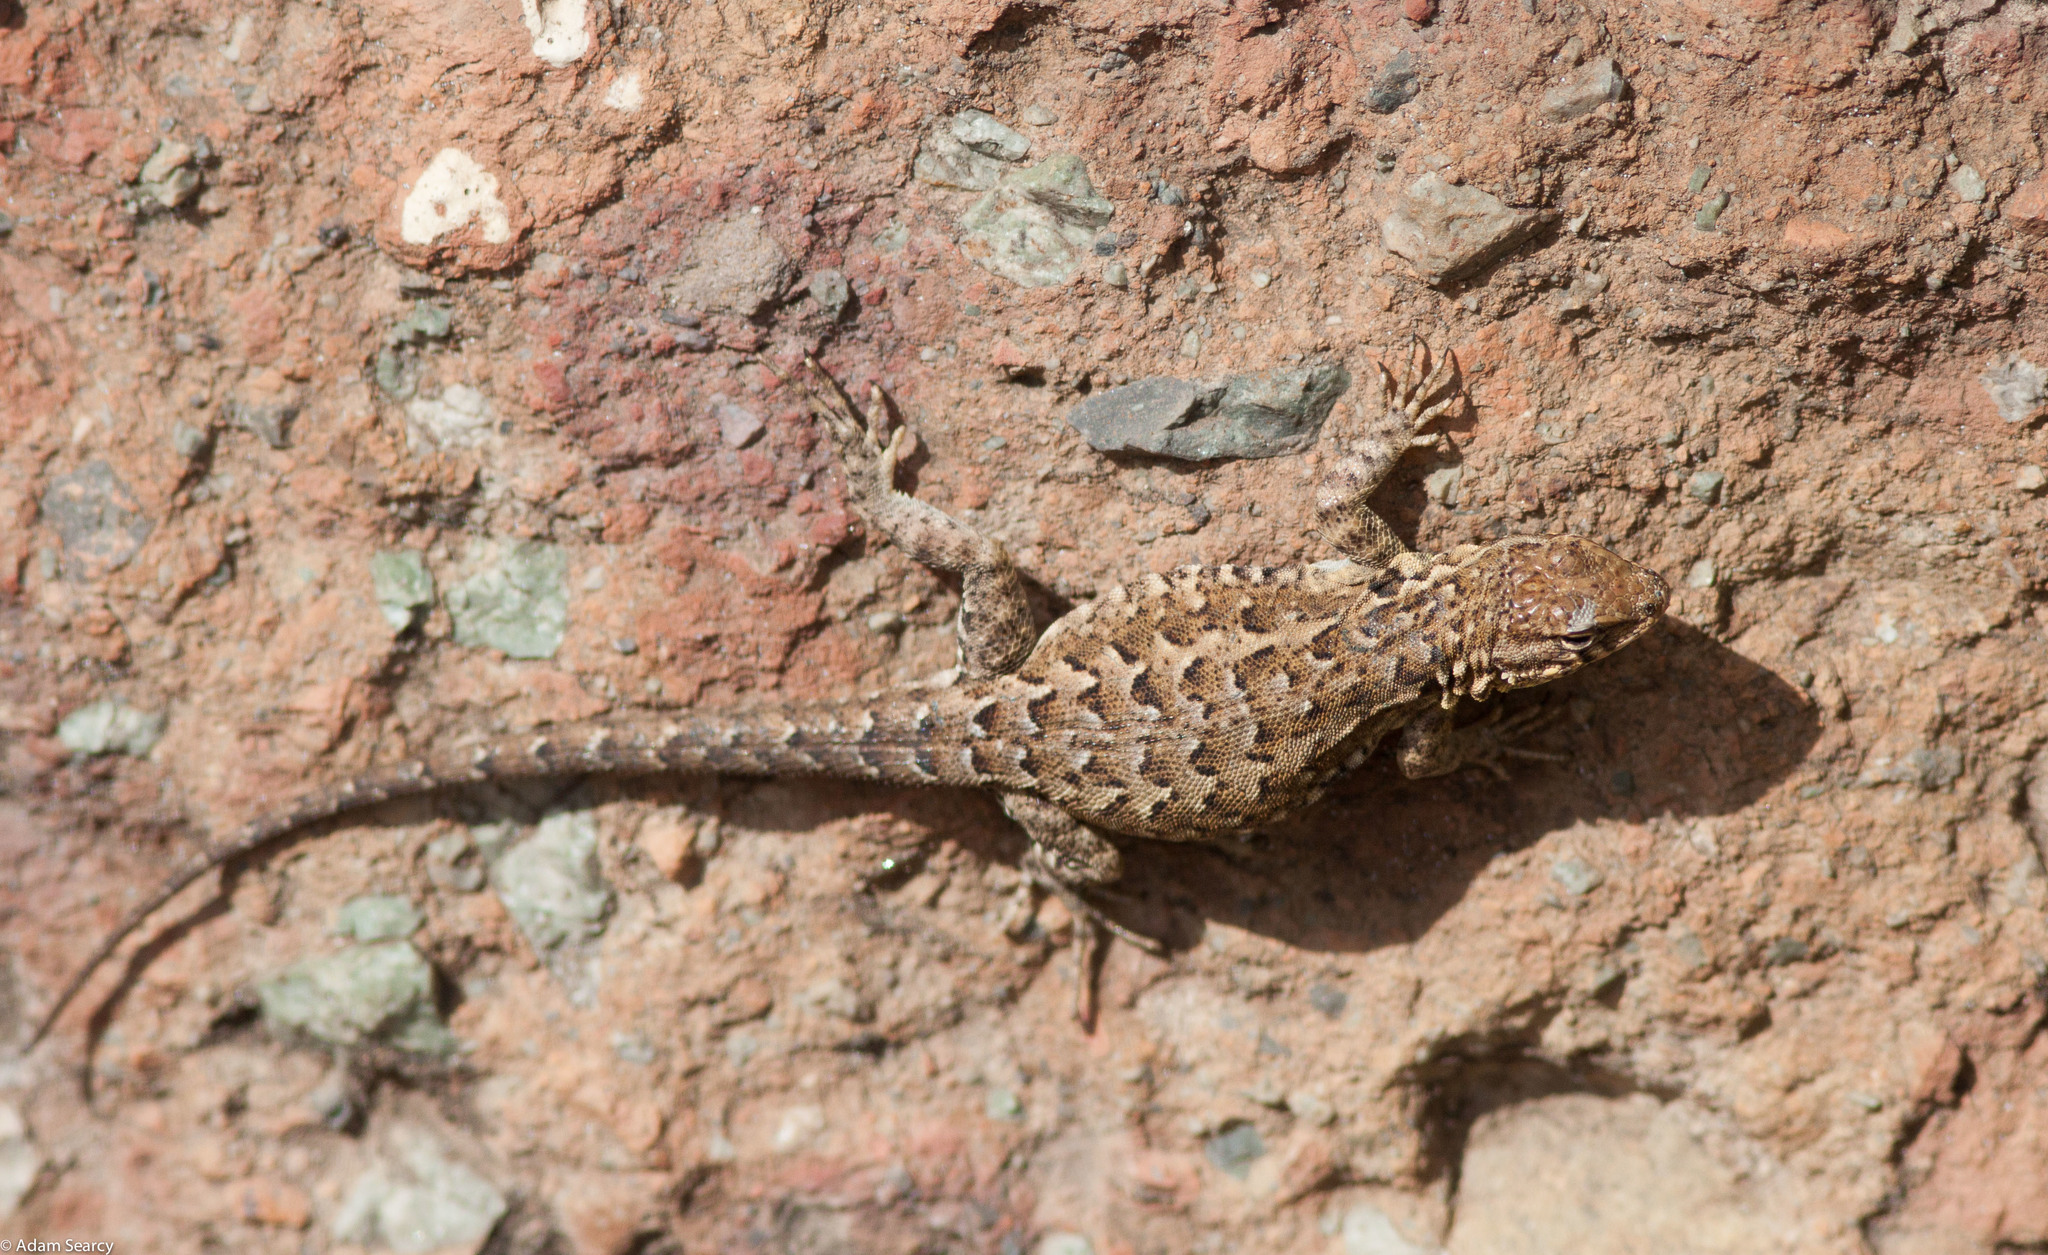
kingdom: Animalia
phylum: Chordata
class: Squamata
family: Phrynosomatidae
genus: Uta
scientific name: Uta stansburiana
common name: Side-blotched lizard
